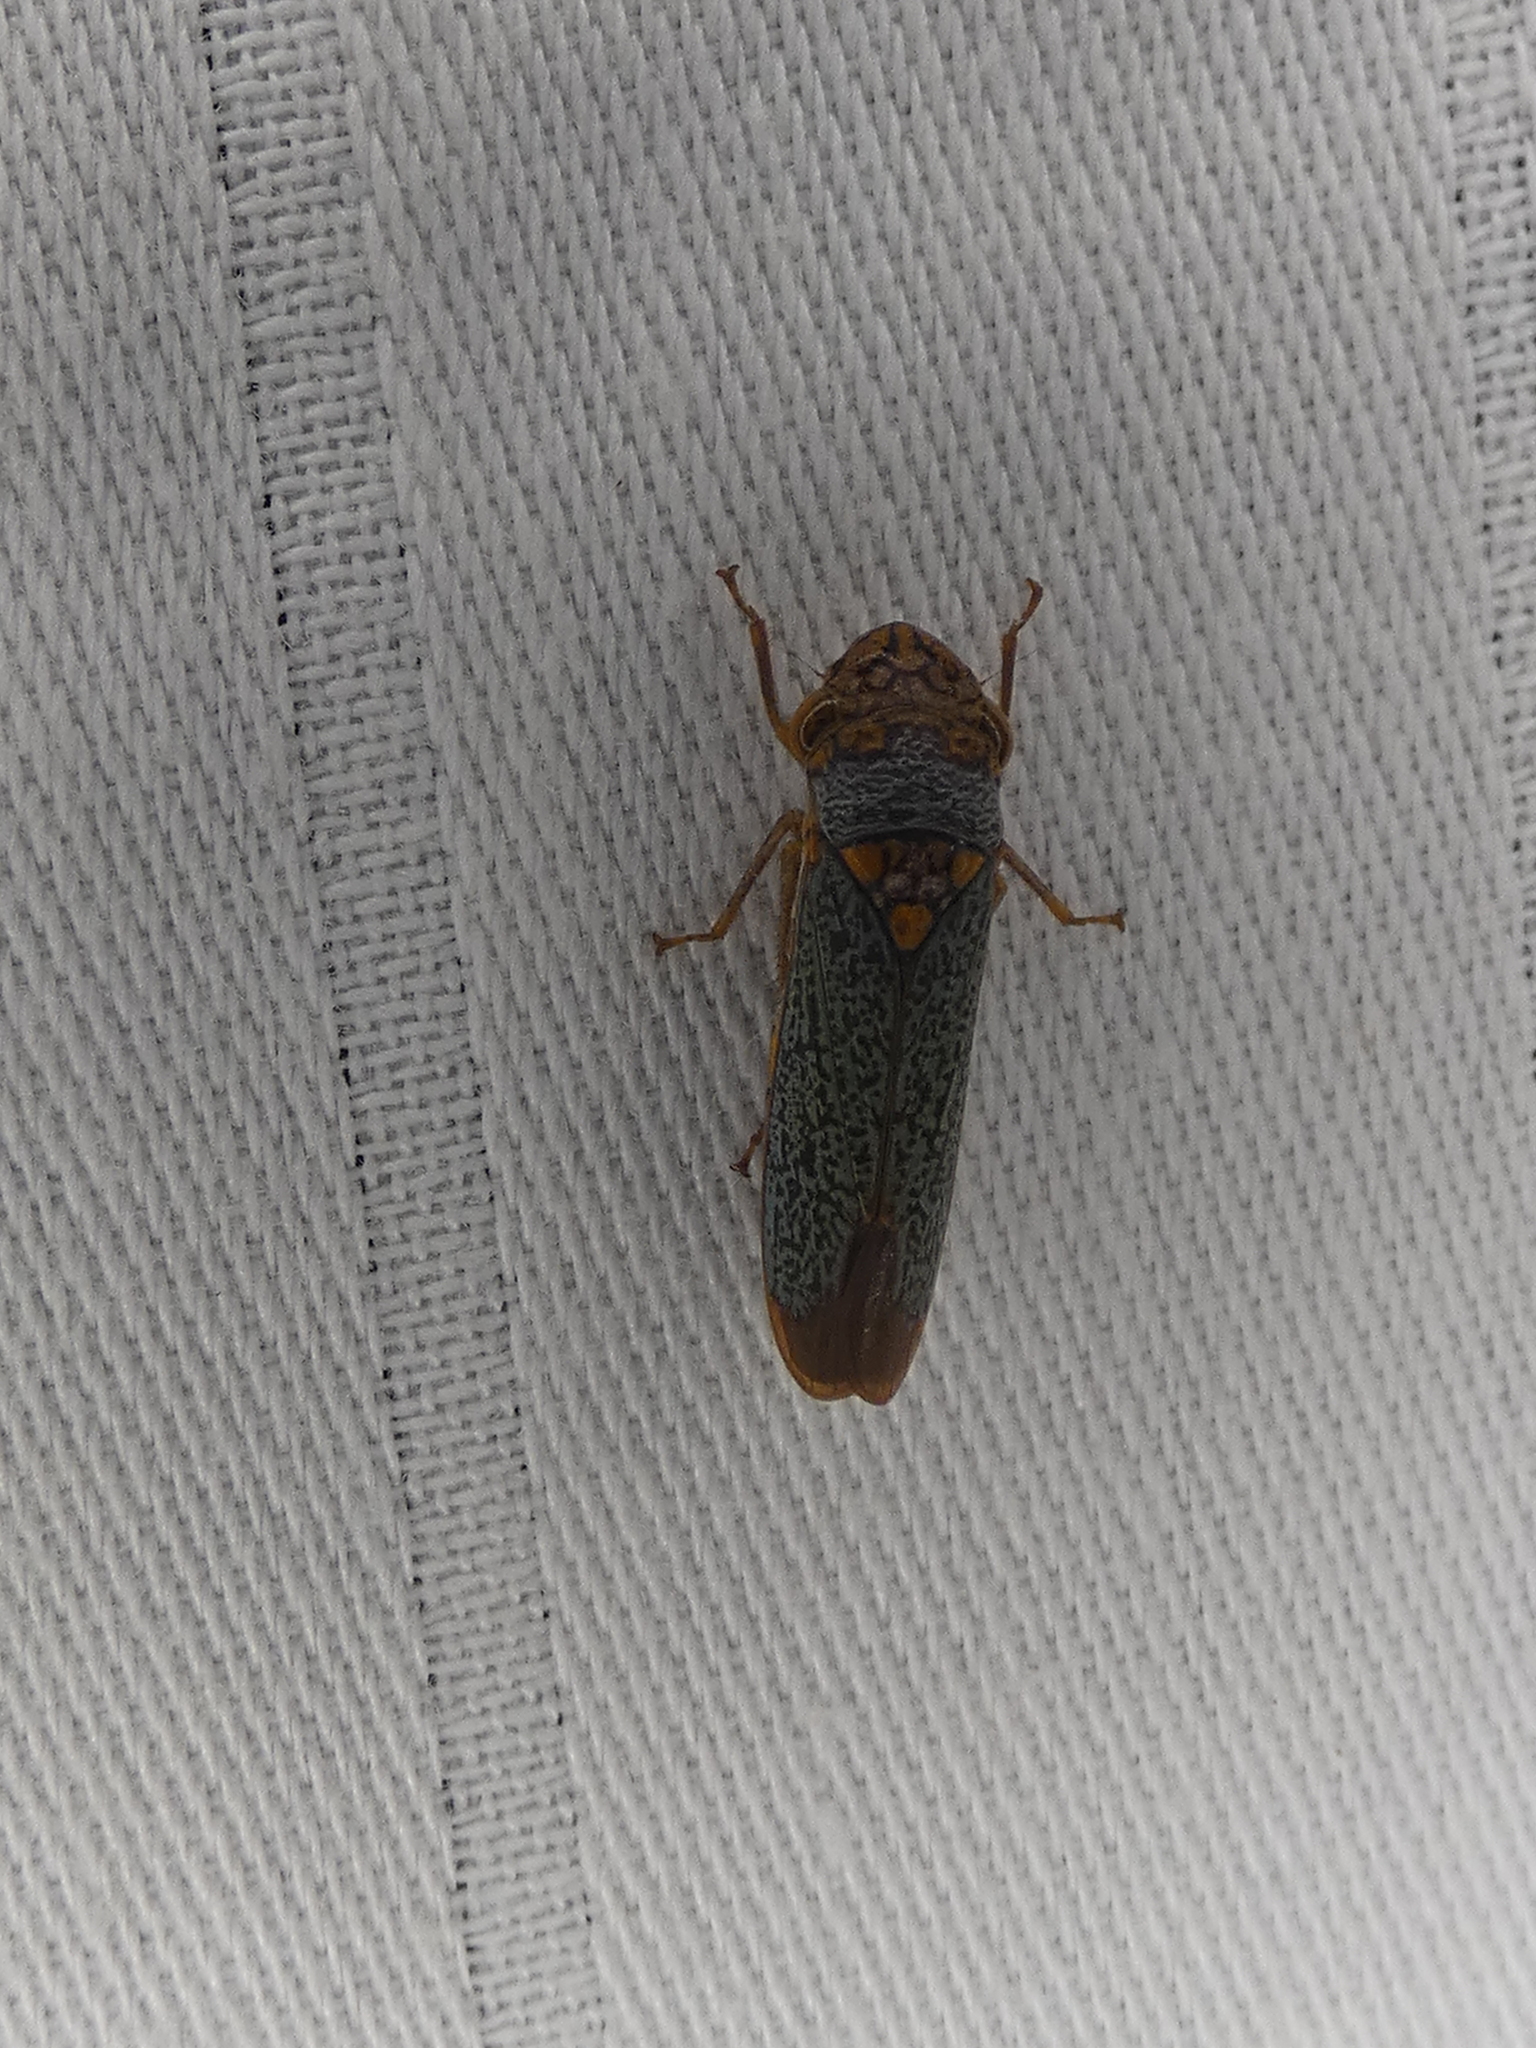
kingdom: Animalia
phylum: Arthropoda
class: Insecta
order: Hemiptera
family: Cicadellidae
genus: Oncometopia
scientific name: Oncometopia orbona
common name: Broad-headed sharpshooter
